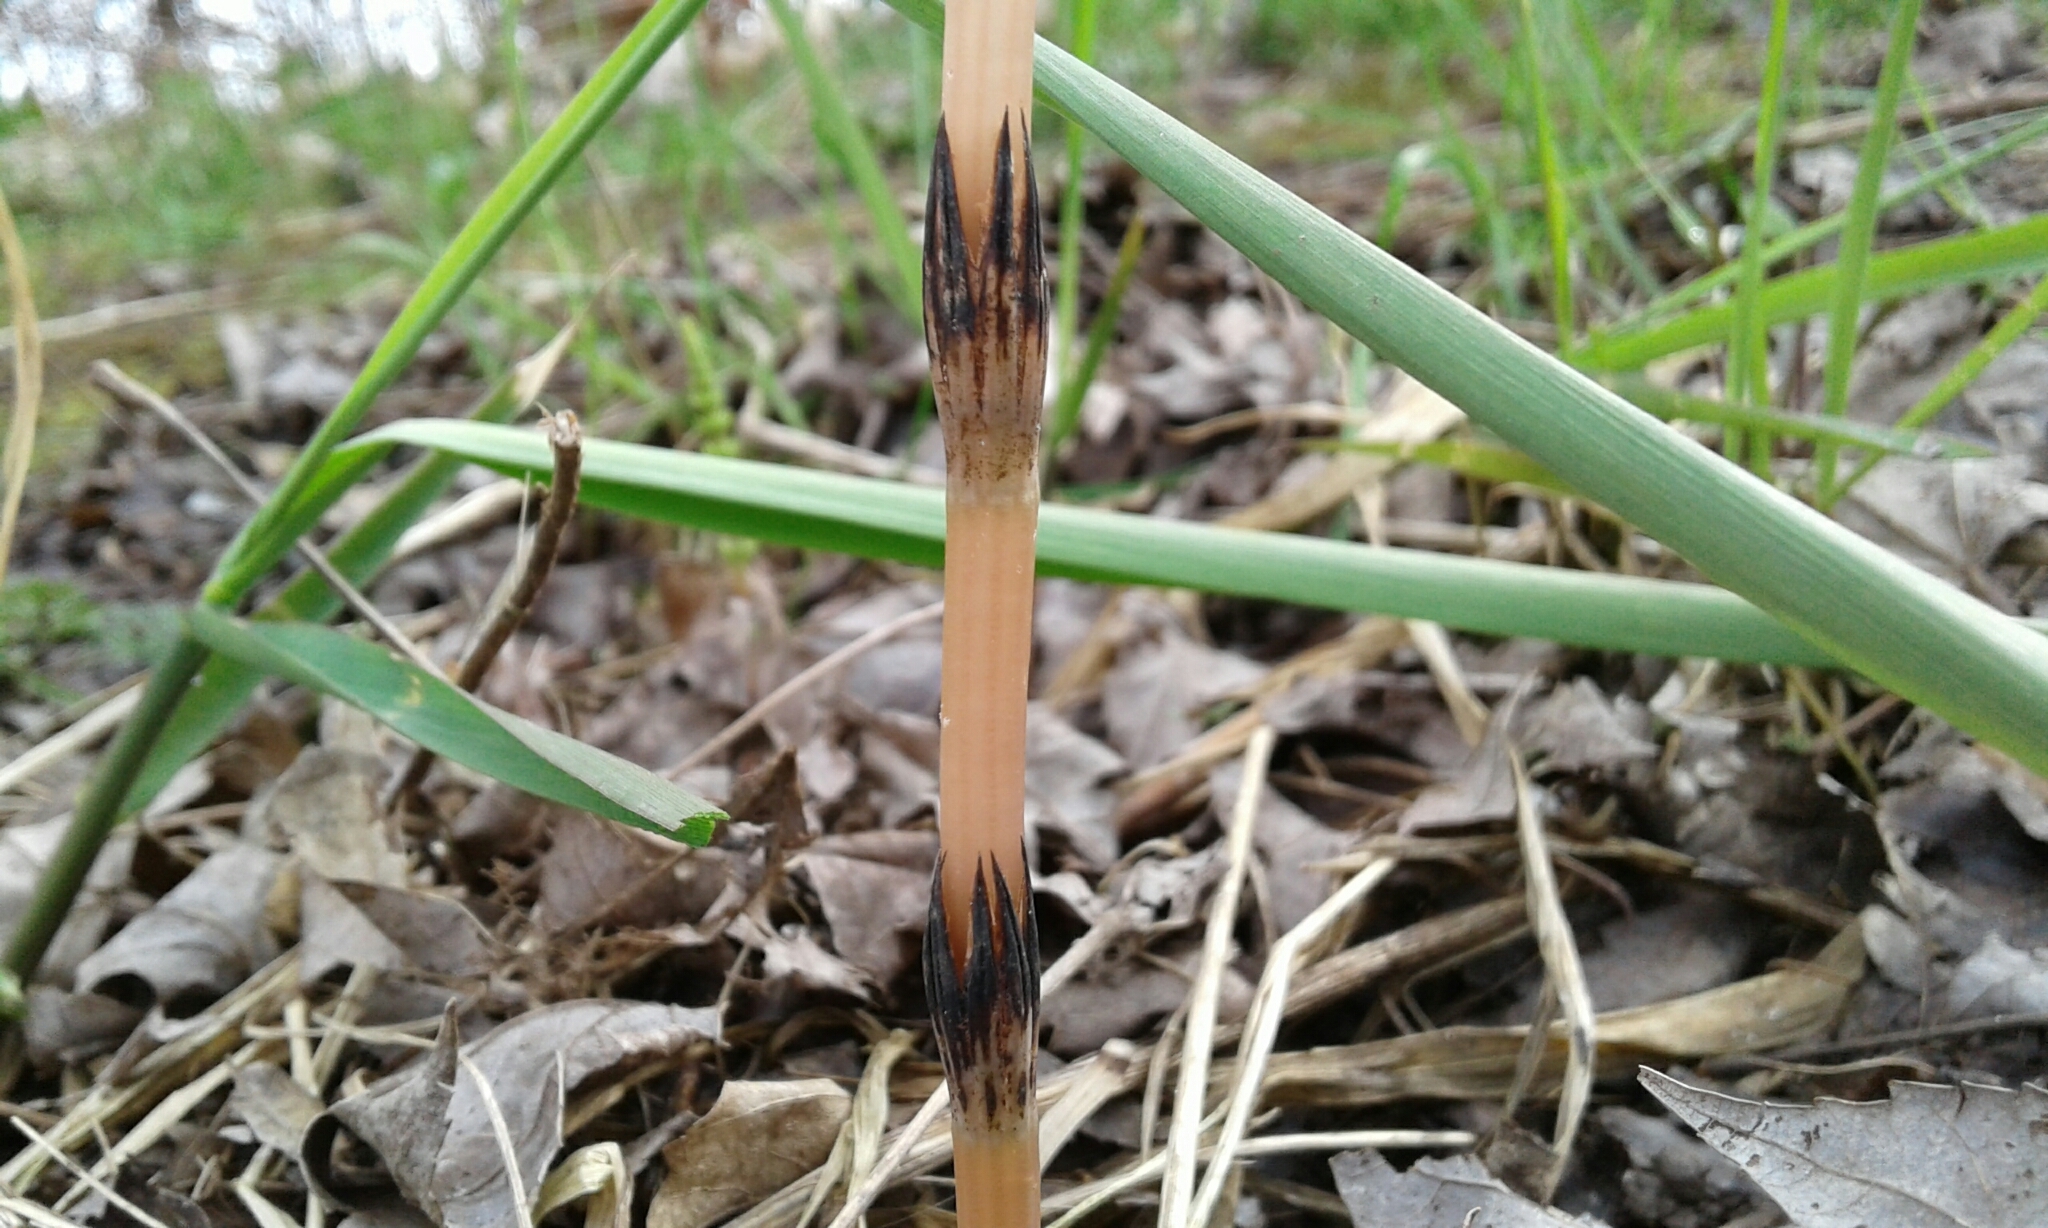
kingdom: Plantae
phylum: Tracheophyta
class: Polypodiopsida
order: Equisetales
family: Equisetaceae
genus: Equisetum
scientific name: Equisetum arvense
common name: Field horsetail
